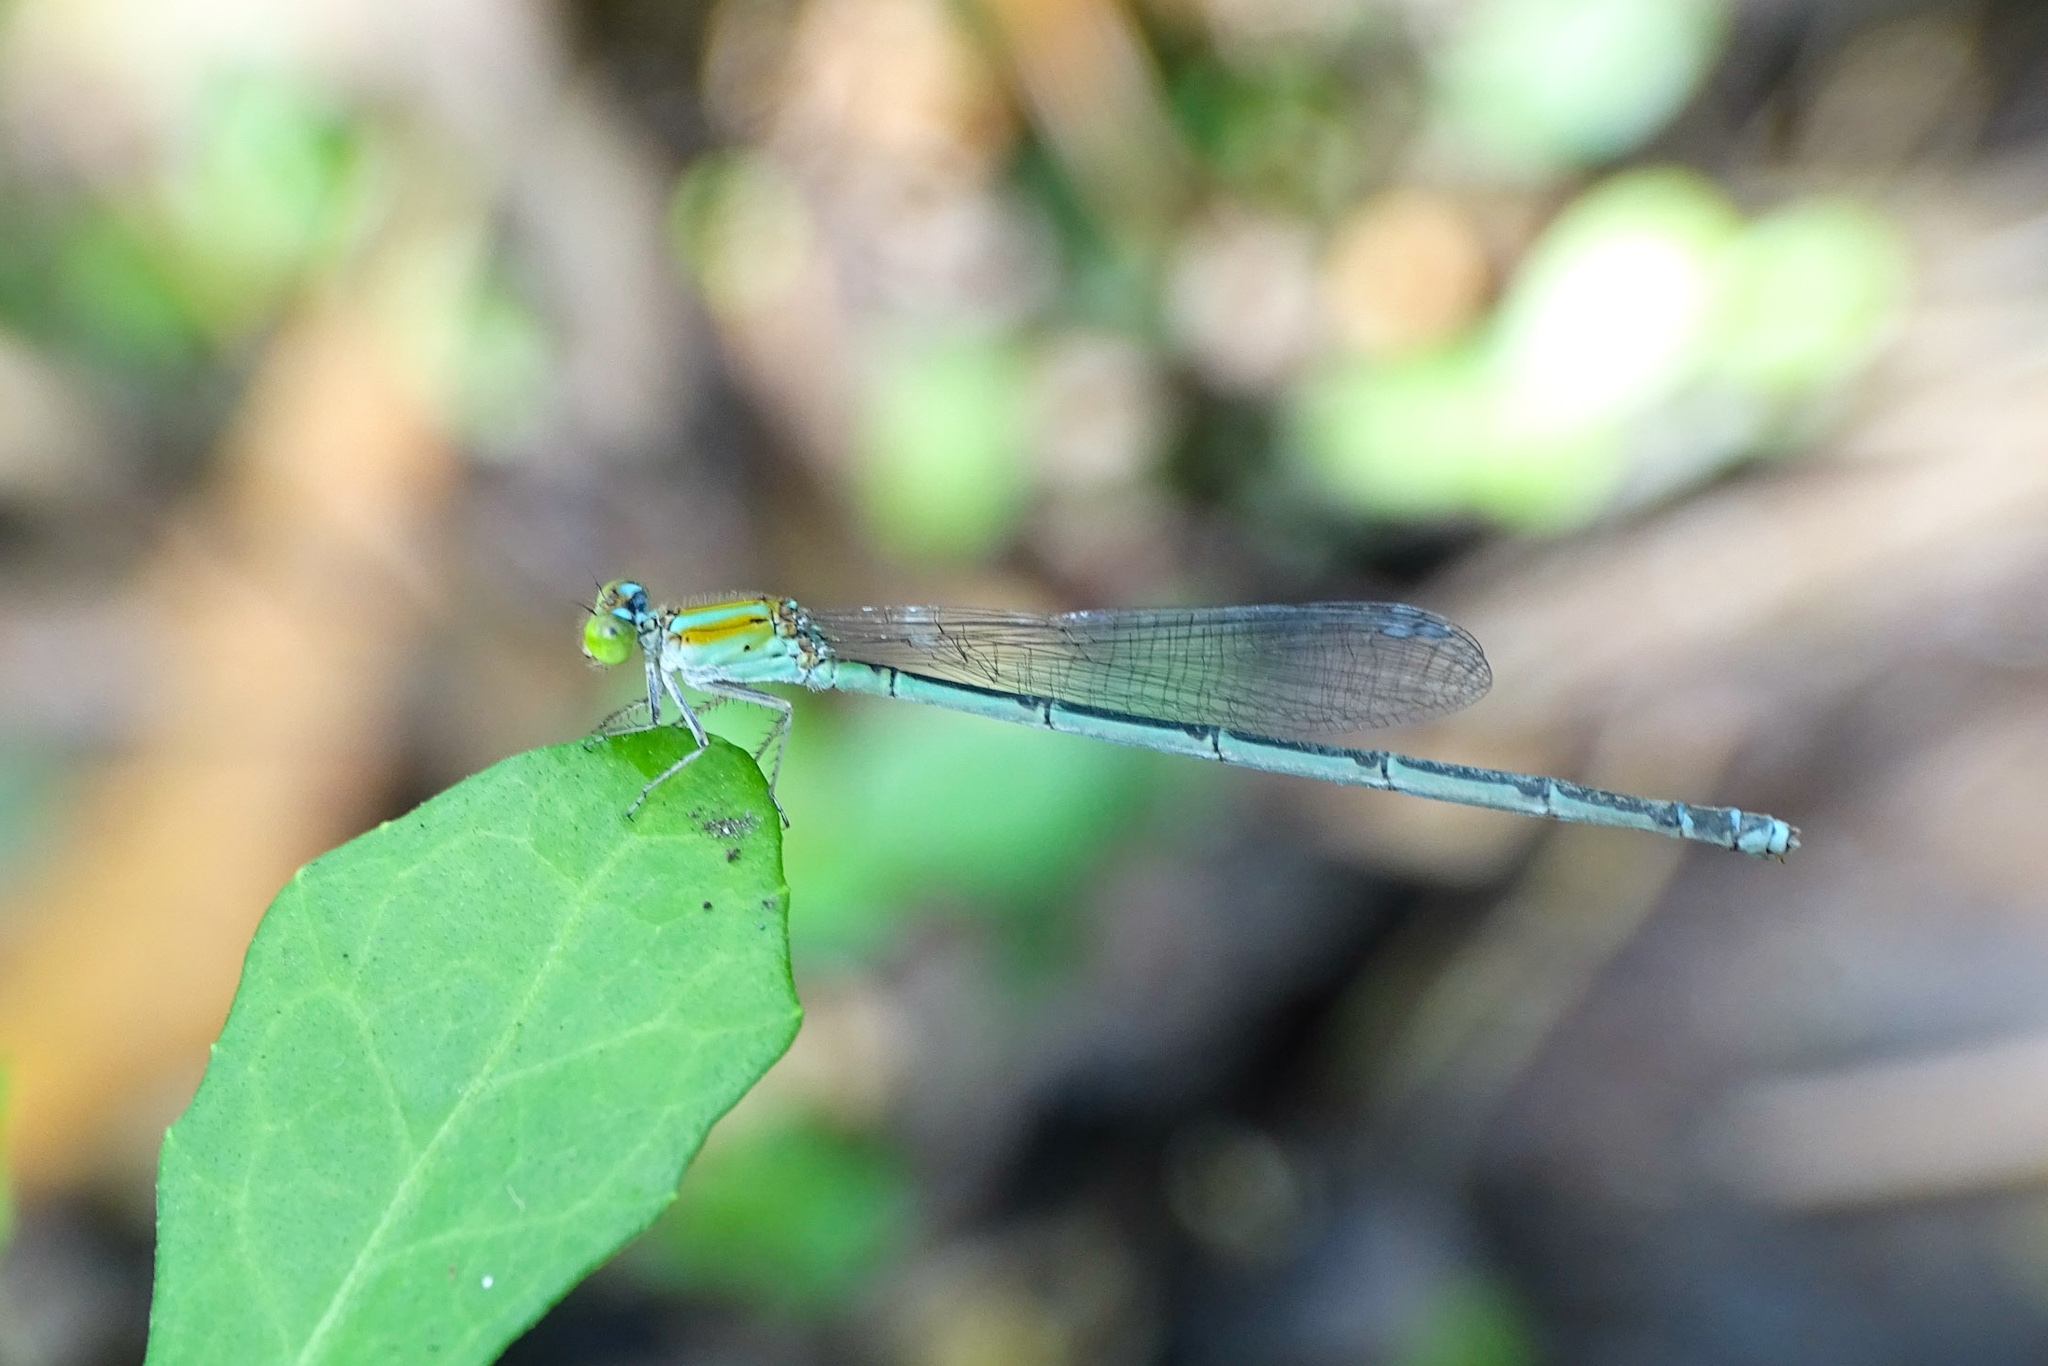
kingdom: Animalia
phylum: Arthropoda
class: Insecta
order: Odonata
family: Coenagrionidae
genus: Pseudagrion
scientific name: Pseudagrion microcephalum
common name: Blue riverdamsel
